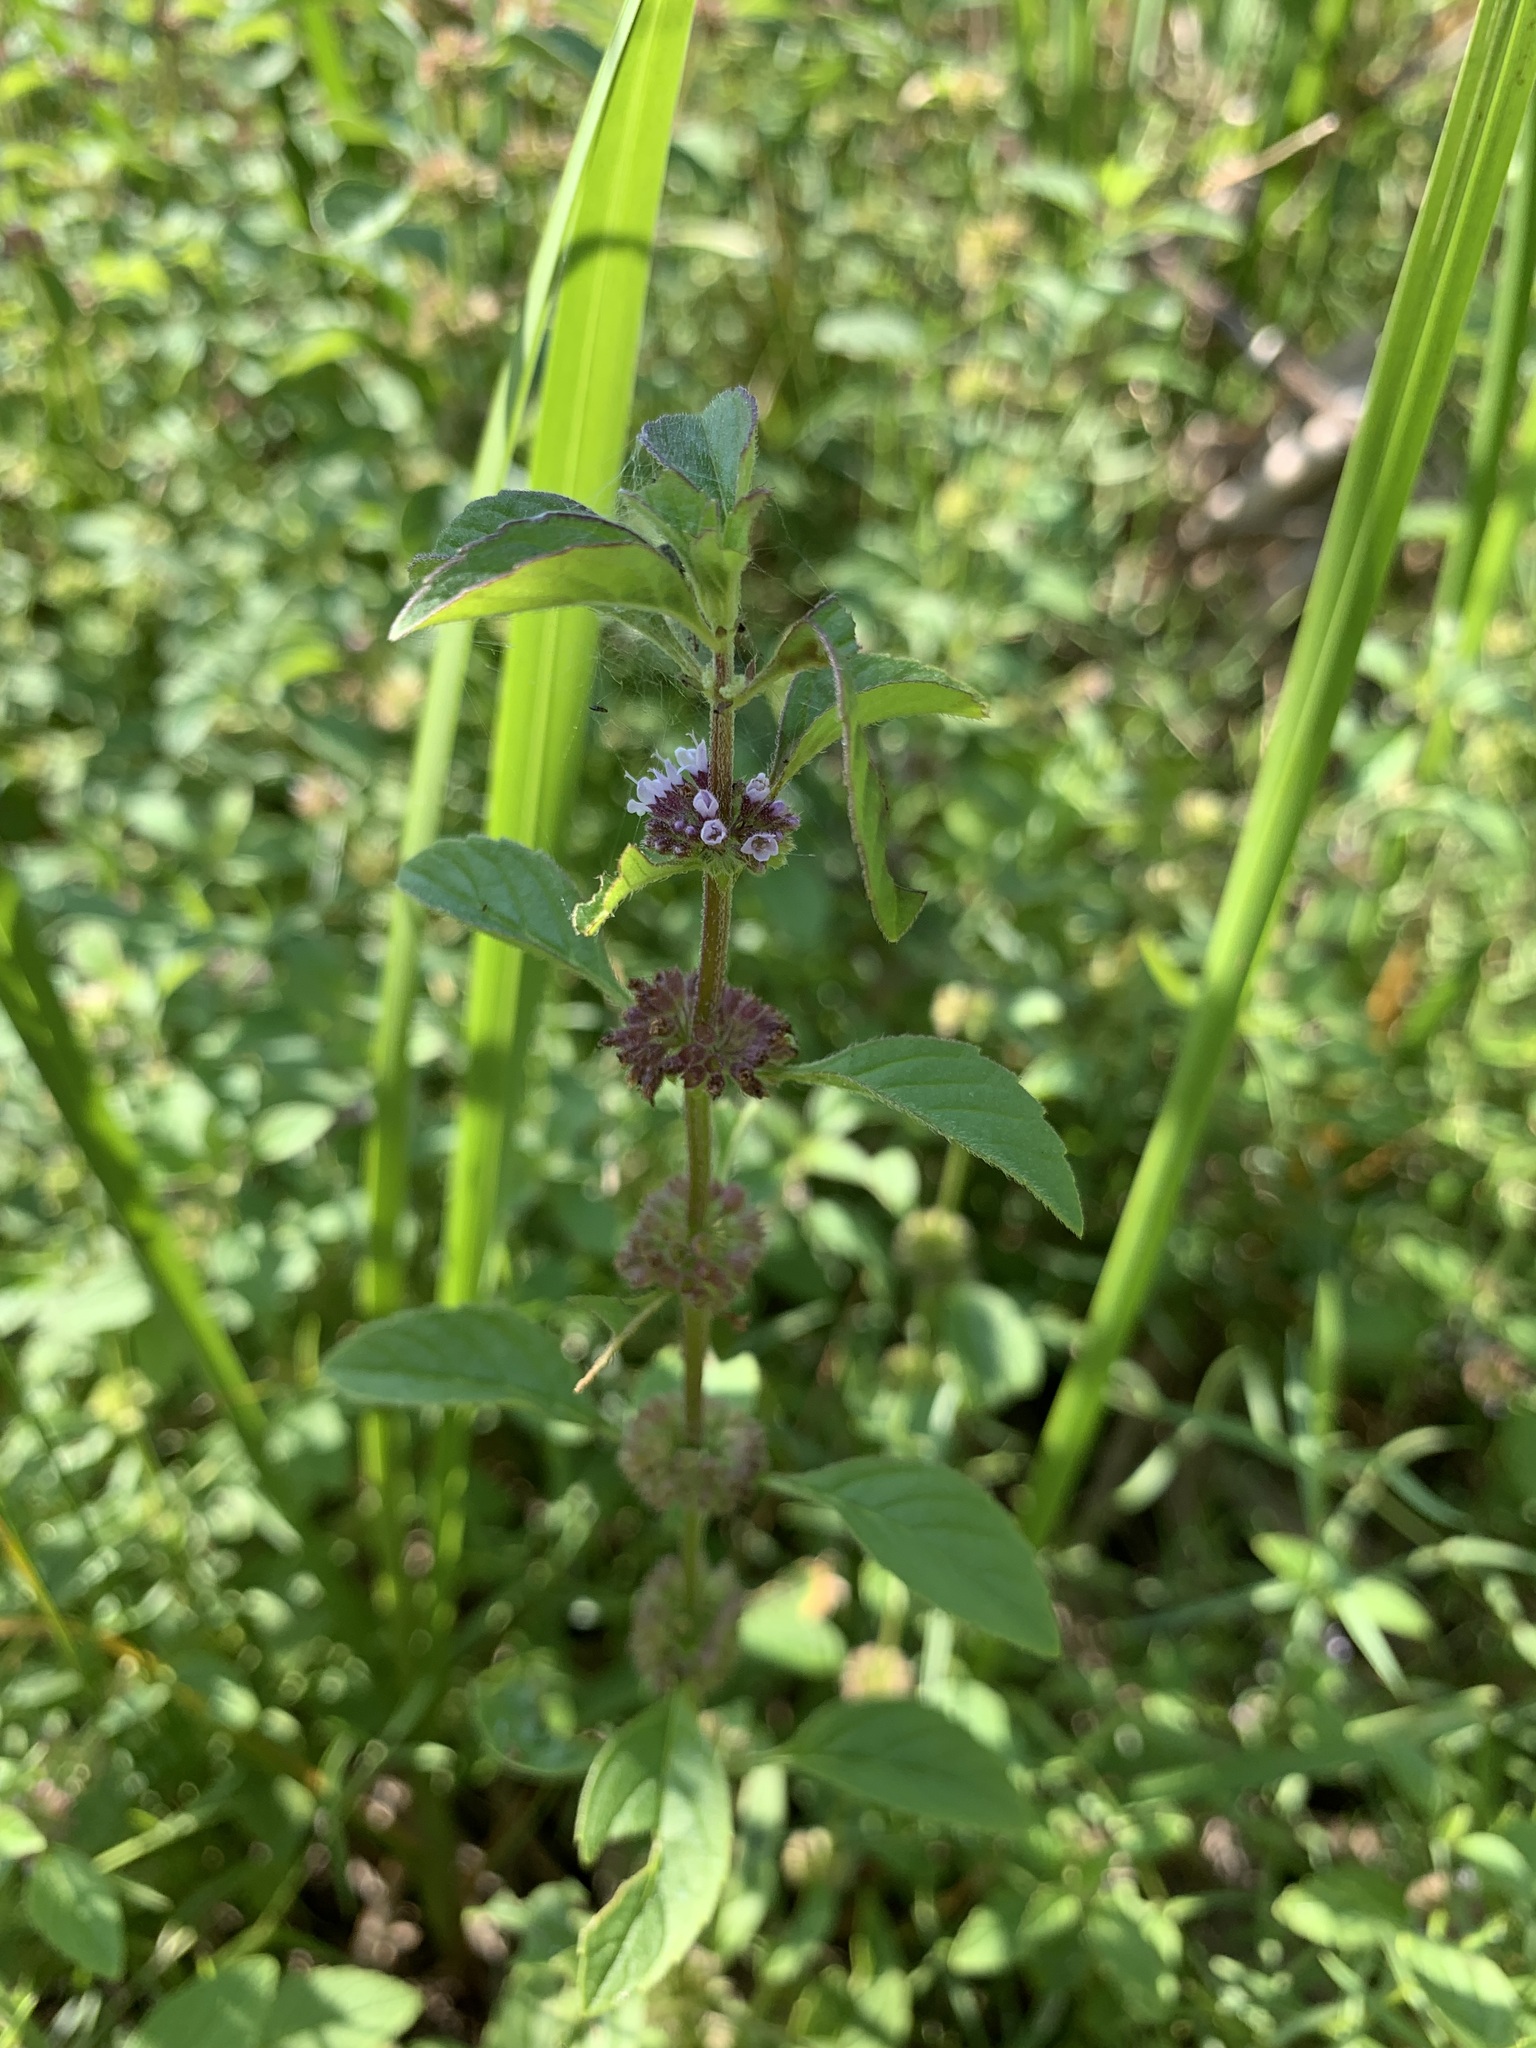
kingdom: Plantae
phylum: Tracheophyta
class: Magnoliopsida
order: Lamiales
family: Lamiaceae
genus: Mentha
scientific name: Mentha arvensis
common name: Corn mint
